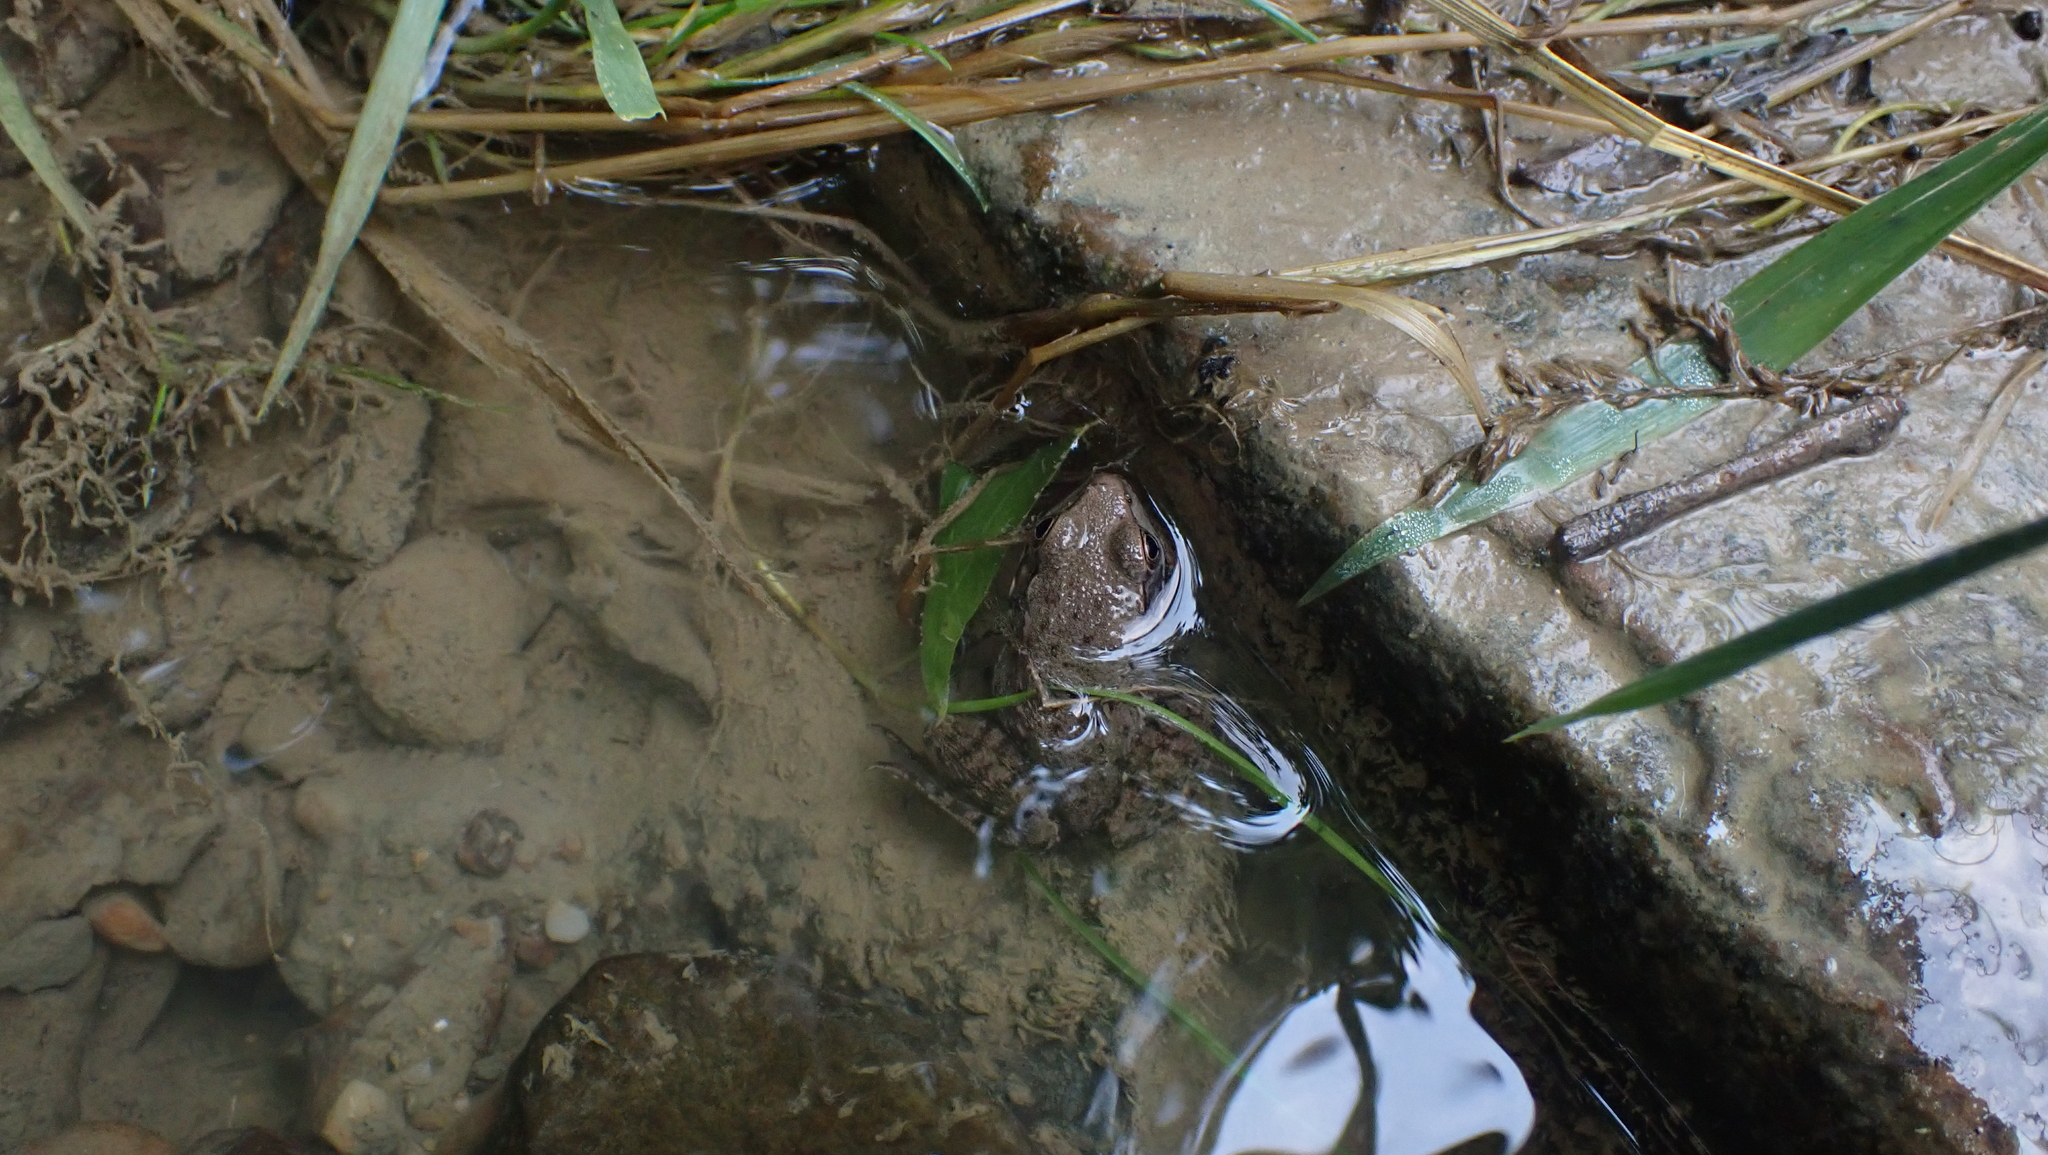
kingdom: Animalia
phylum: Chordata
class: Amphibia
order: Anura
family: Ranidae
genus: Lithobates
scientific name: Lithobates clamitans
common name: Green frog
